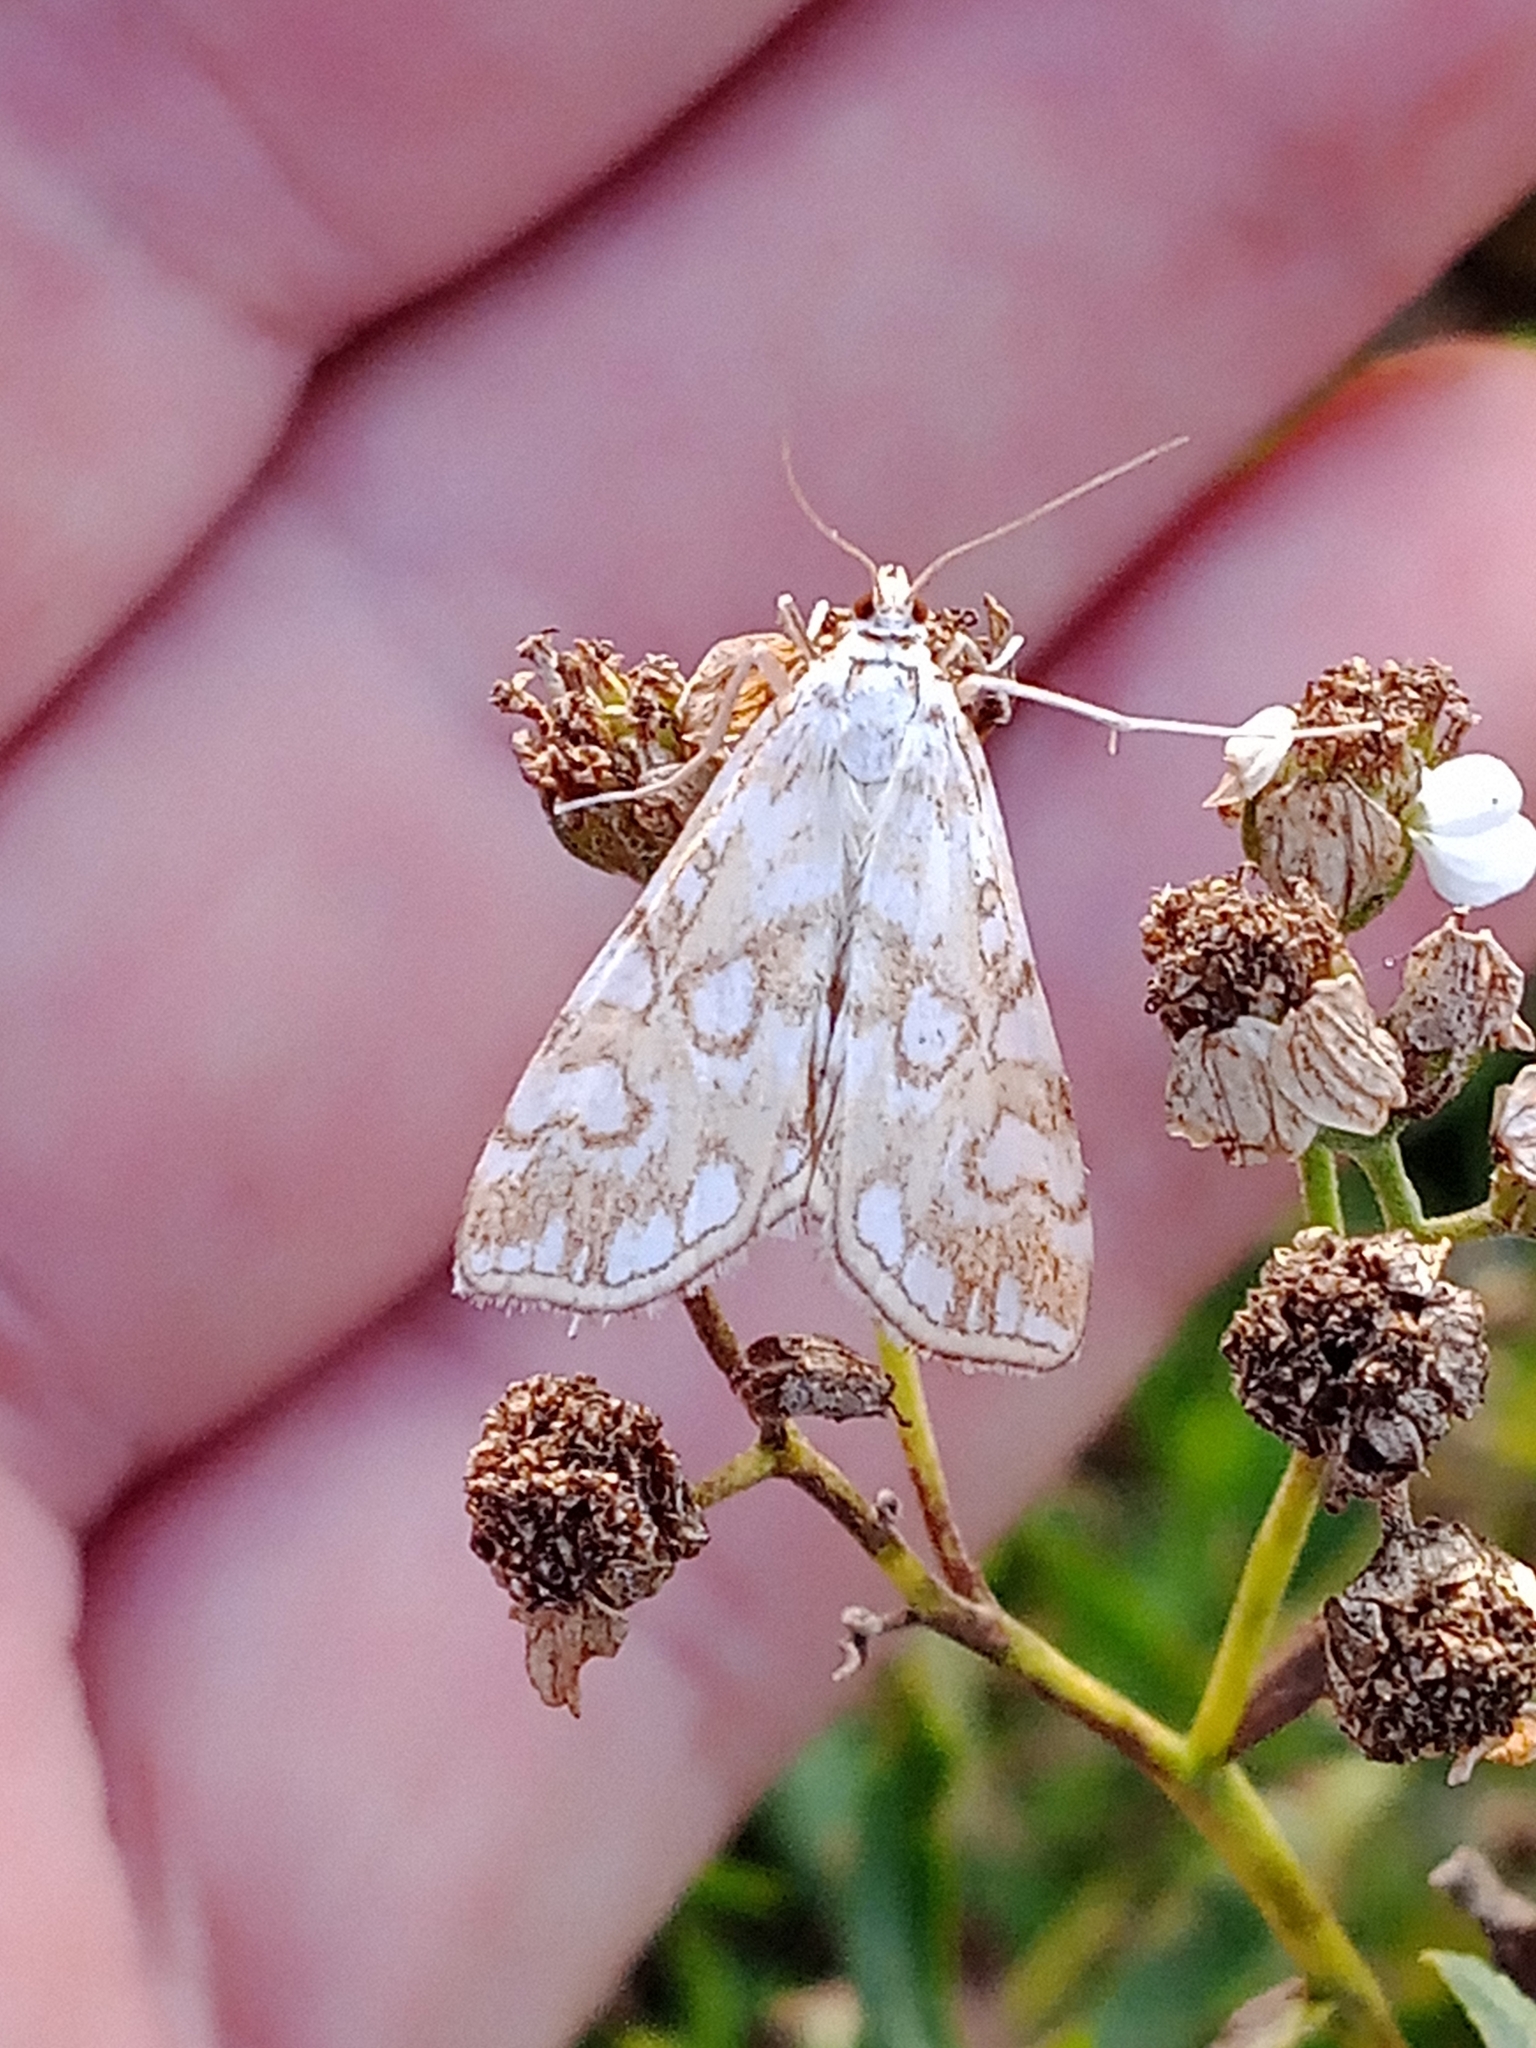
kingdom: Animalia
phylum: Arthropoda
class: Insecta
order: Lepidoptera
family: Crambidae
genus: Elophila
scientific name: Elophila nymphaeata
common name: Brown china-mark
